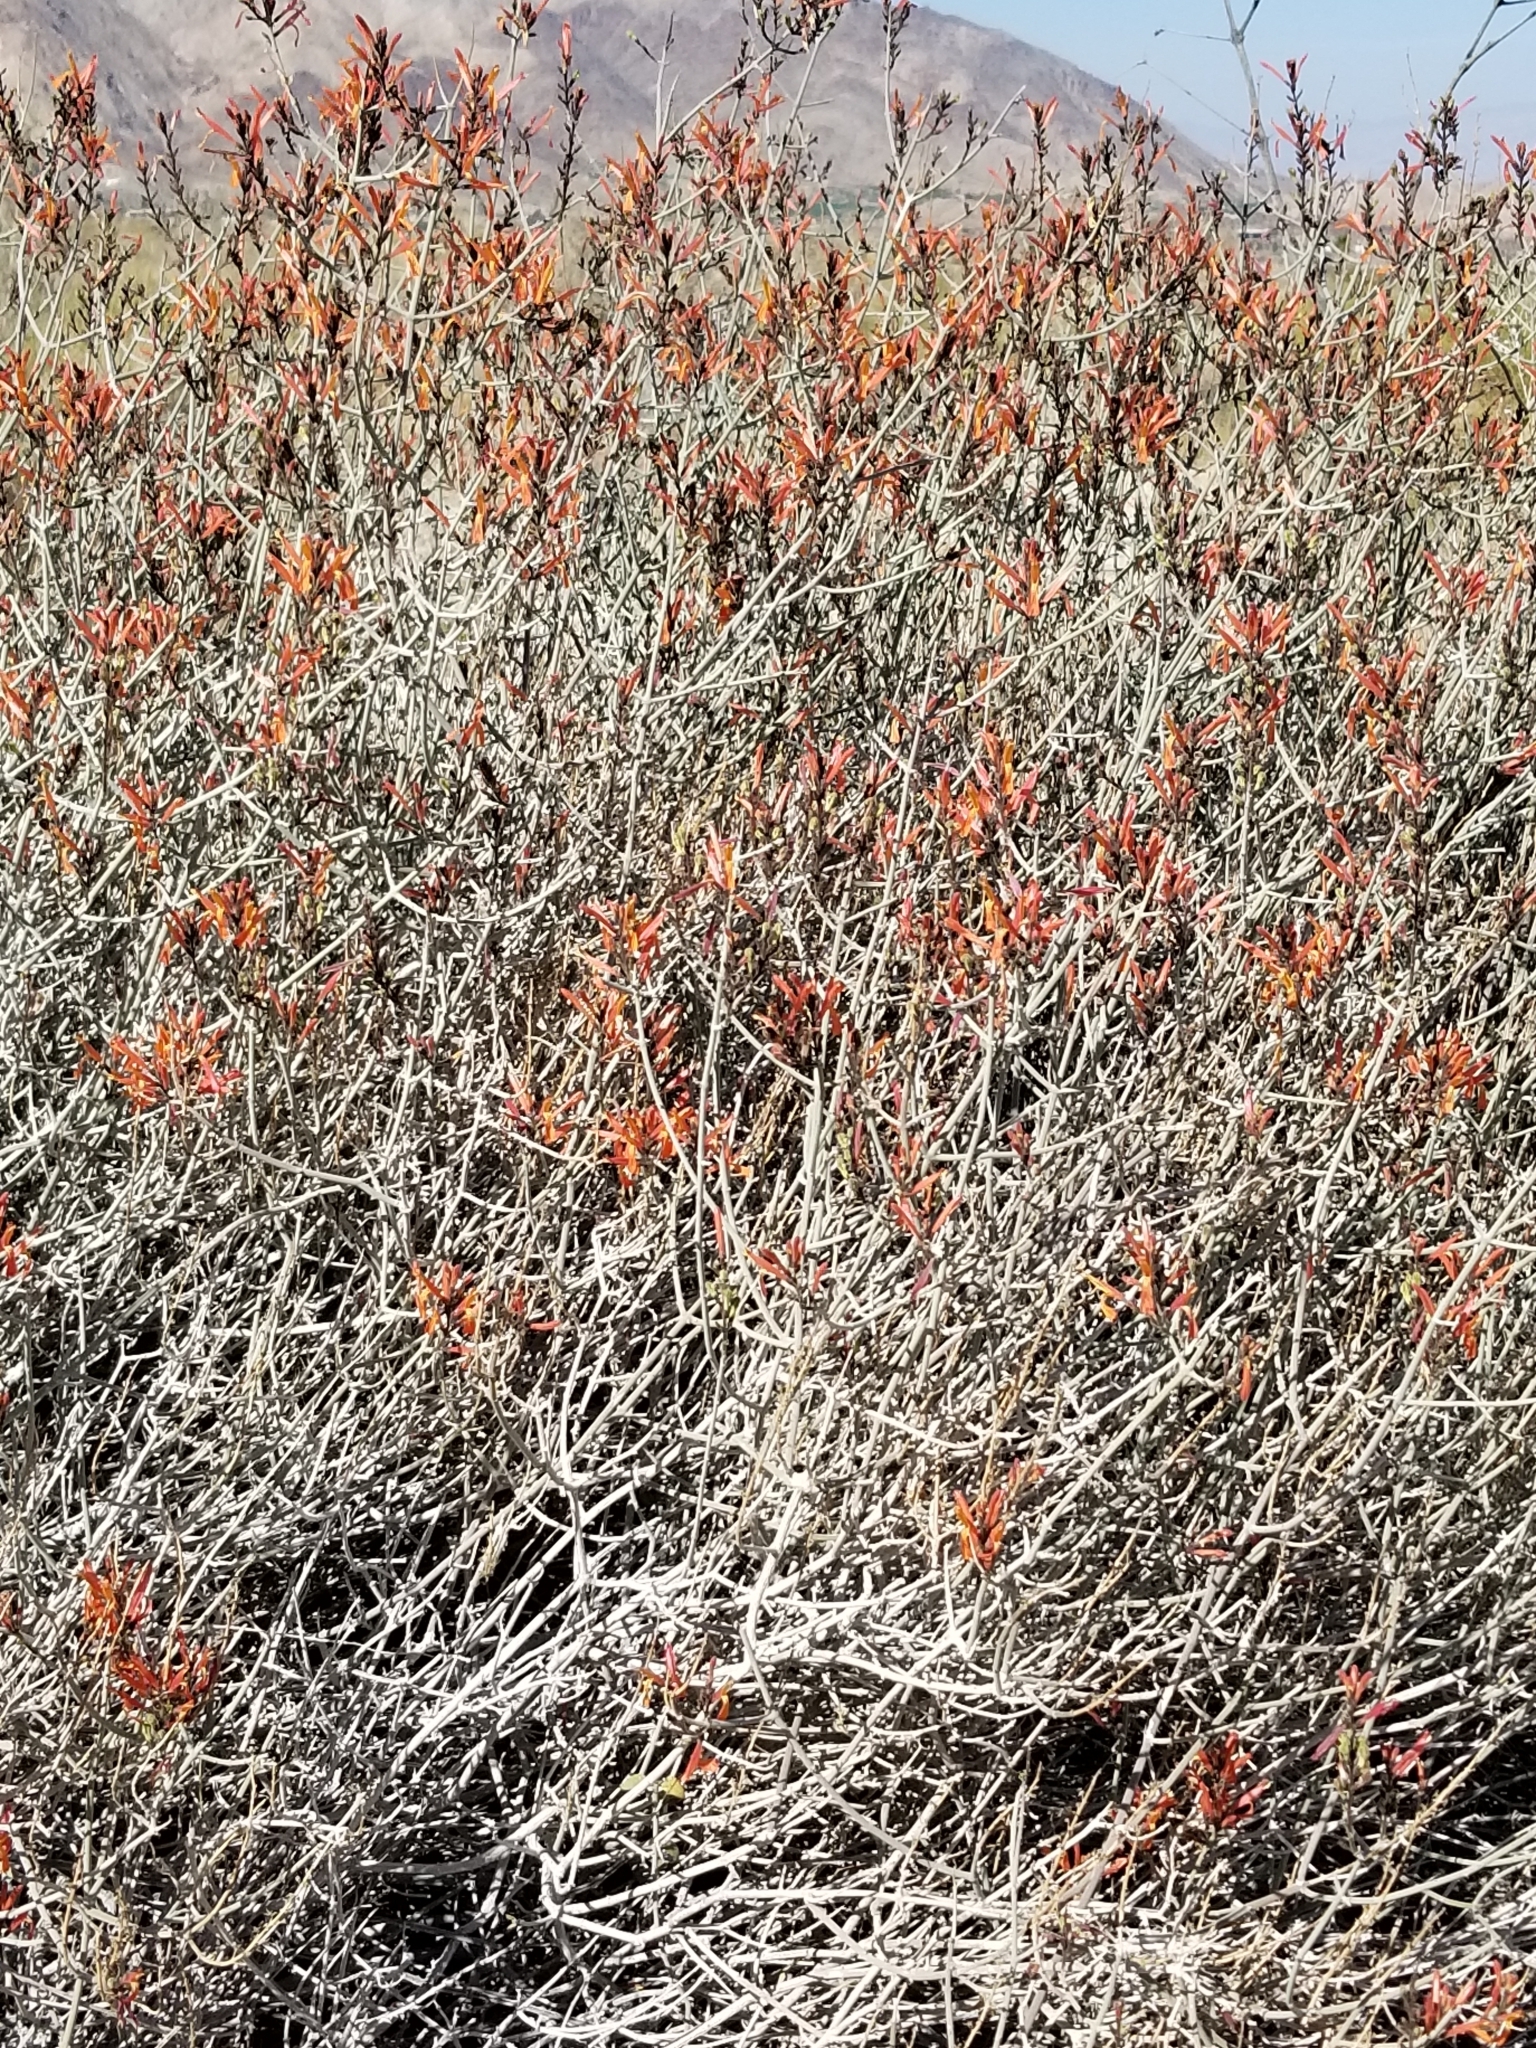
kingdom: Plantae
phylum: Tracheophyta
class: Magnoliopsida
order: Lamiales
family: Acanthaceae
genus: Justicia
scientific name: Justicia californica
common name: Chuparosa-honeysuckle
